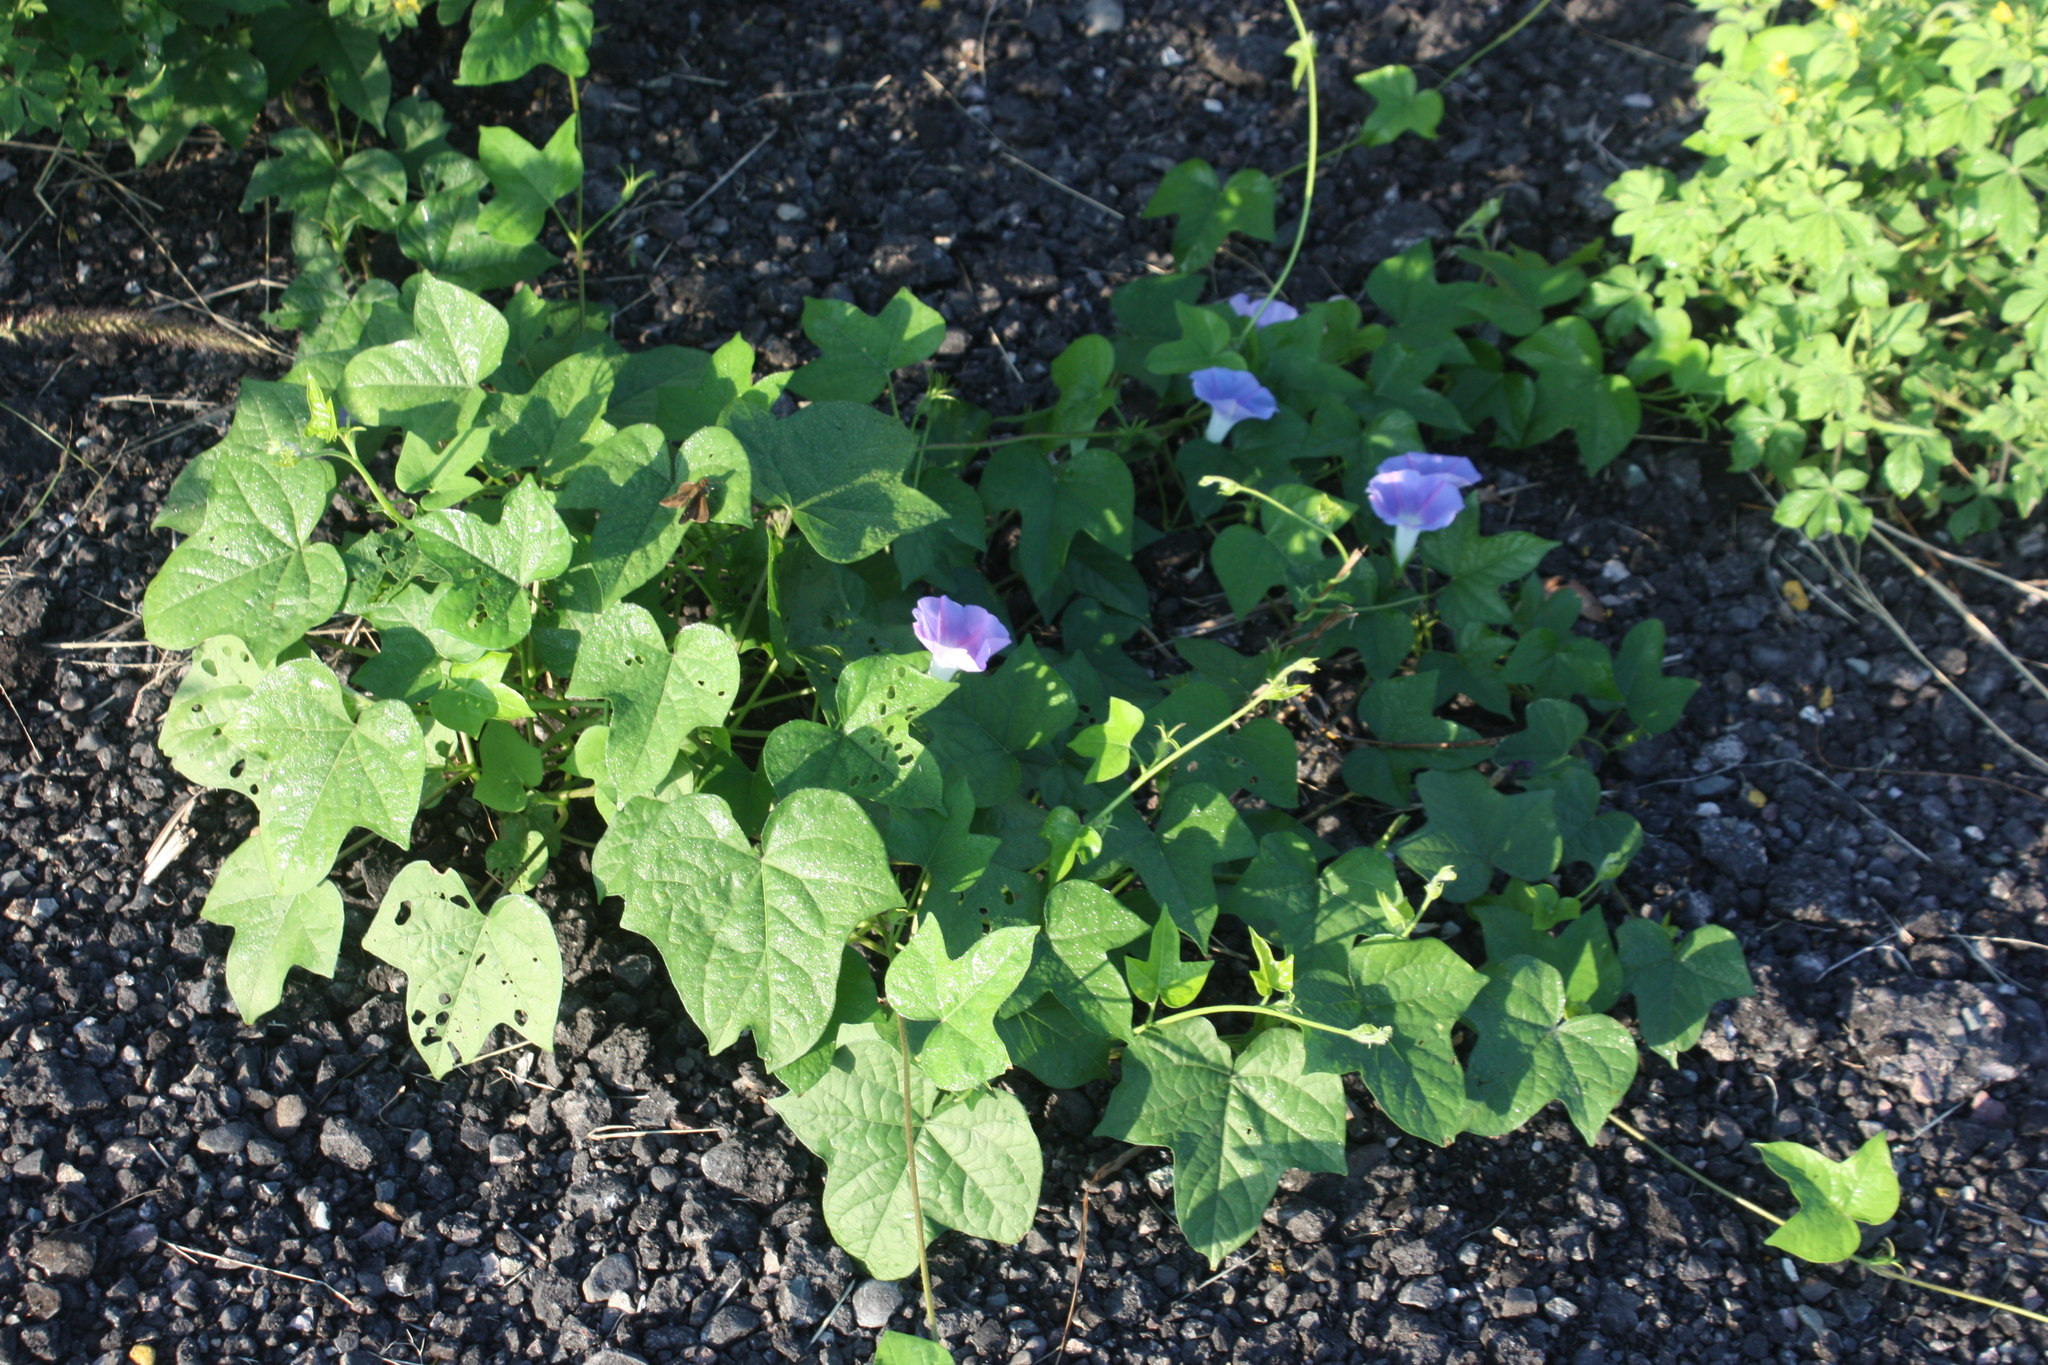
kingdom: Plantae
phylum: Tracheophyta
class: Magnoliopsida
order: Solanales
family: Convolvulaceae
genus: Ipomoea
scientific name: Ipomoea nil
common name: Japanese morning-glory
